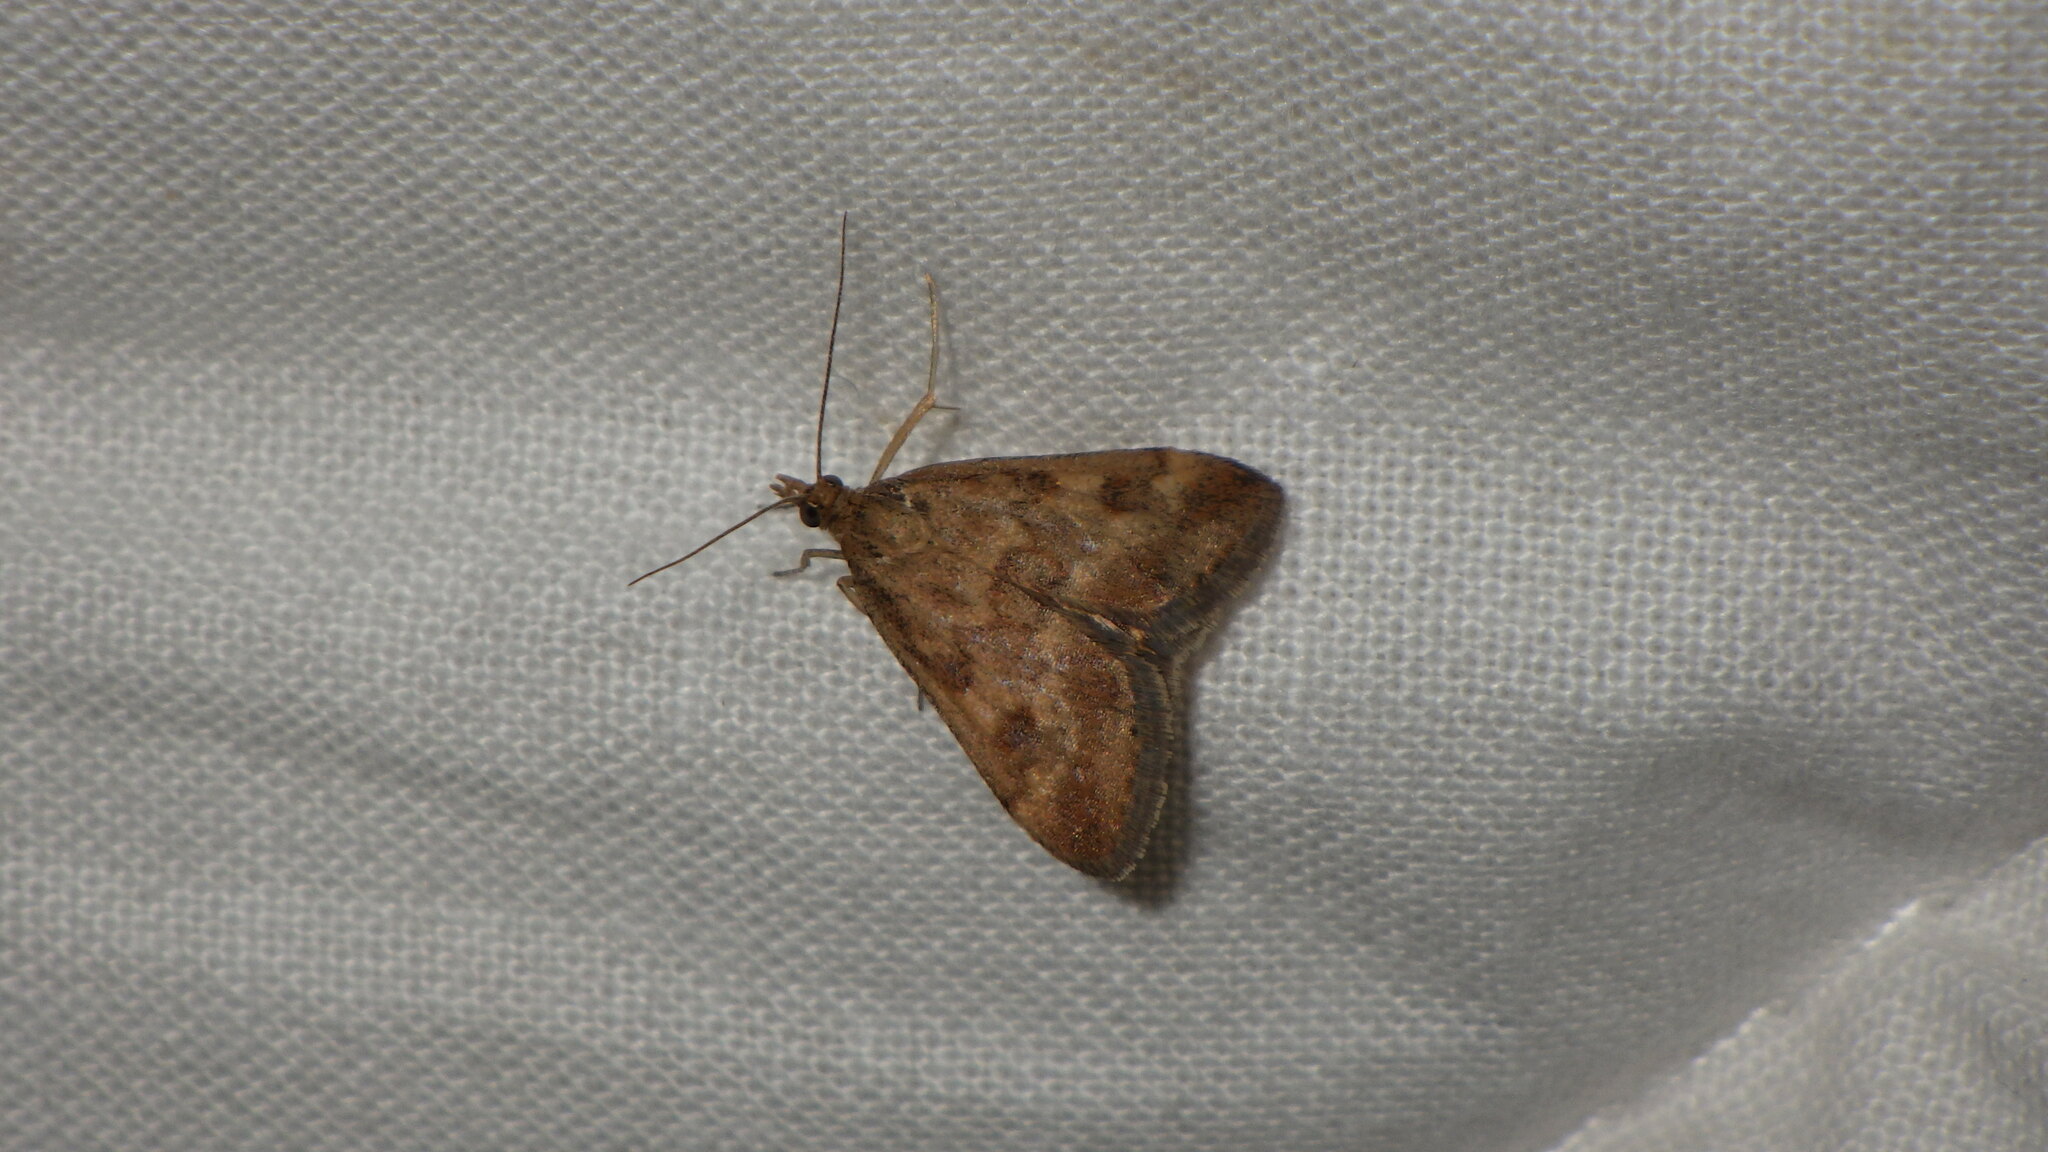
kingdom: Animalia
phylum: Arthropoda
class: Insecta
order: Lepidoptera
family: Crambidae
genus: Pyrausta
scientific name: Pyrausta despicata
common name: Straw-barred pearl
